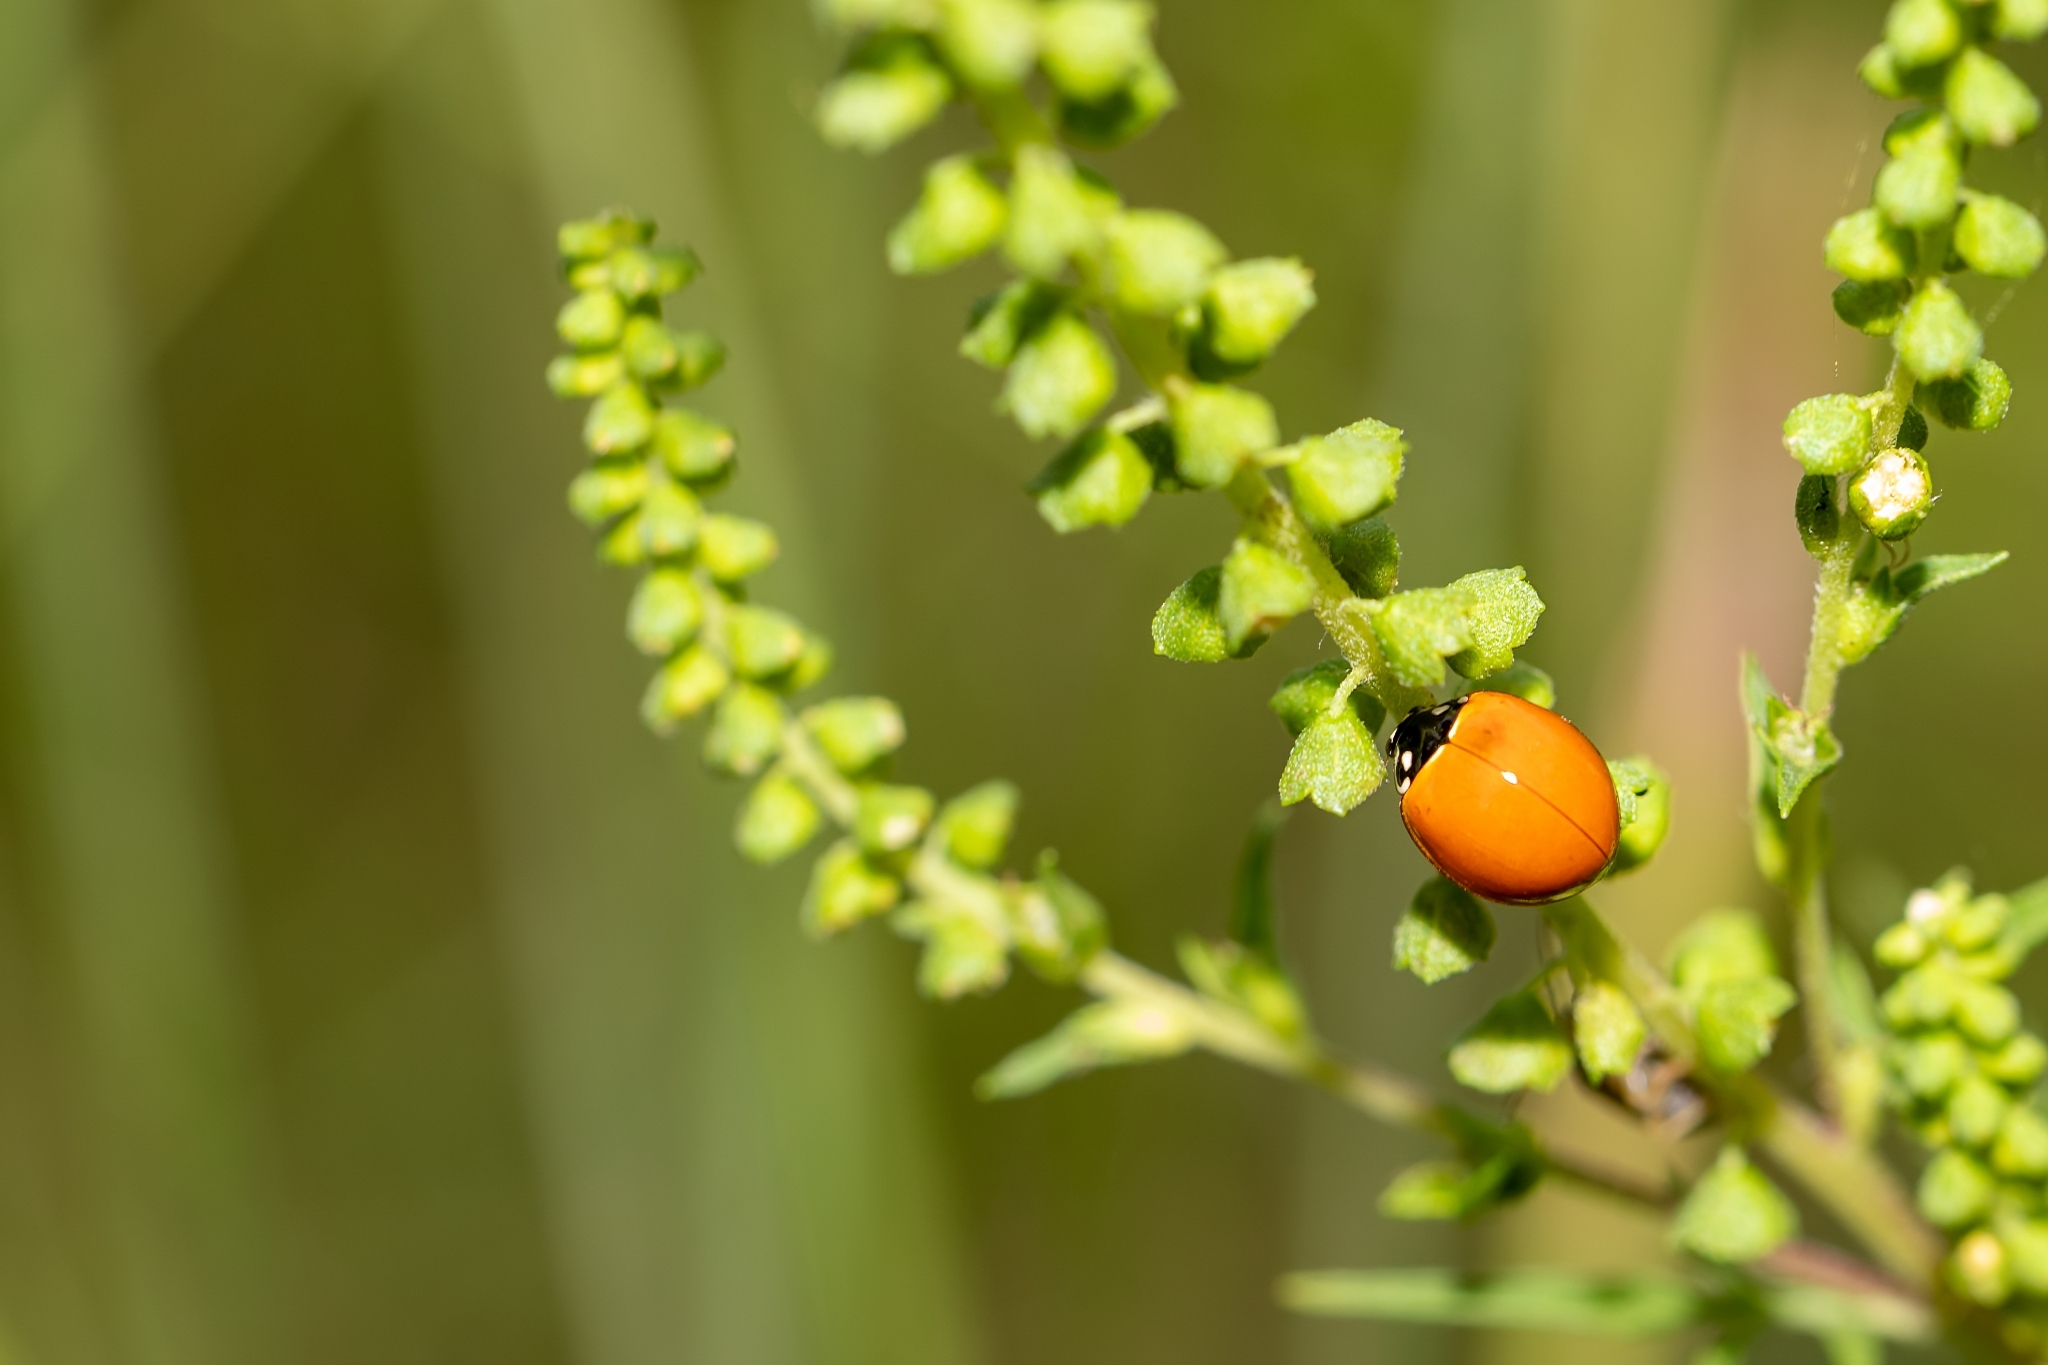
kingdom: Animalia
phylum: Arthropoda
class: Insecta
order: Coleoptera
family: Coccinellidae
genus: Cycloneda
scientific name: Cycloneda sanguinea
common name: Ladybird beetle
